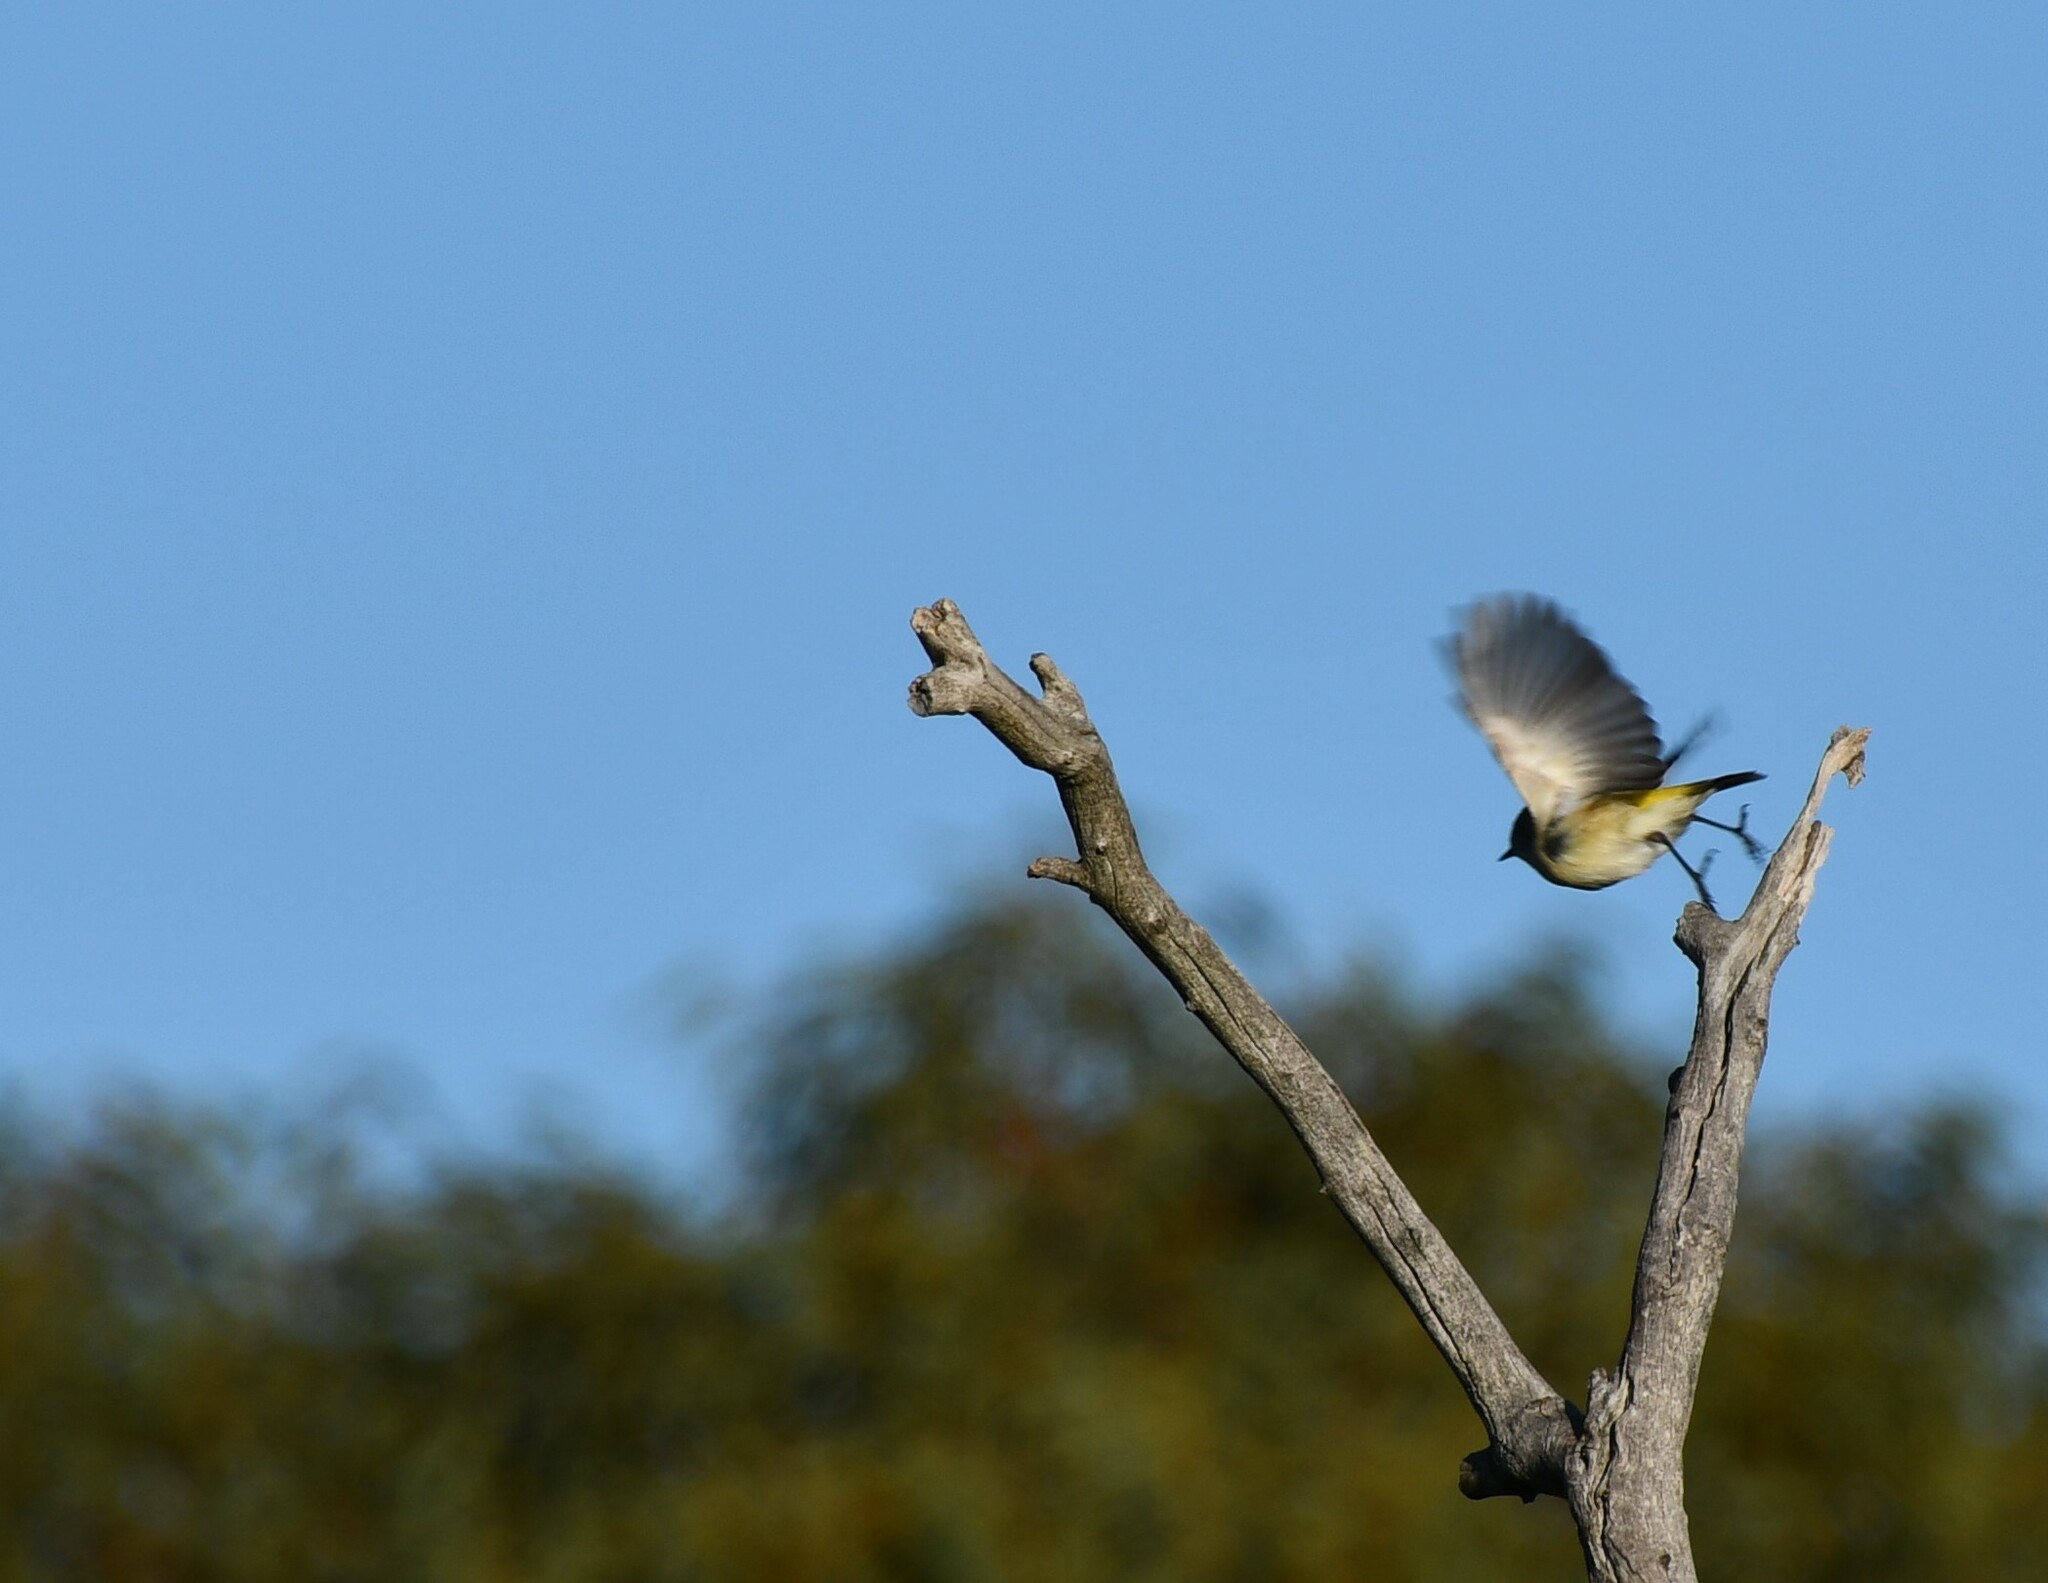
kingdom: Animalia
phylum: Chordata
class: Aves
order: Passeriformes
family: Acanthizidae
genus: Acanthiza
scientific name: Acanthiza chrysorrhoa
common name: Yellow-rumped thornbill
